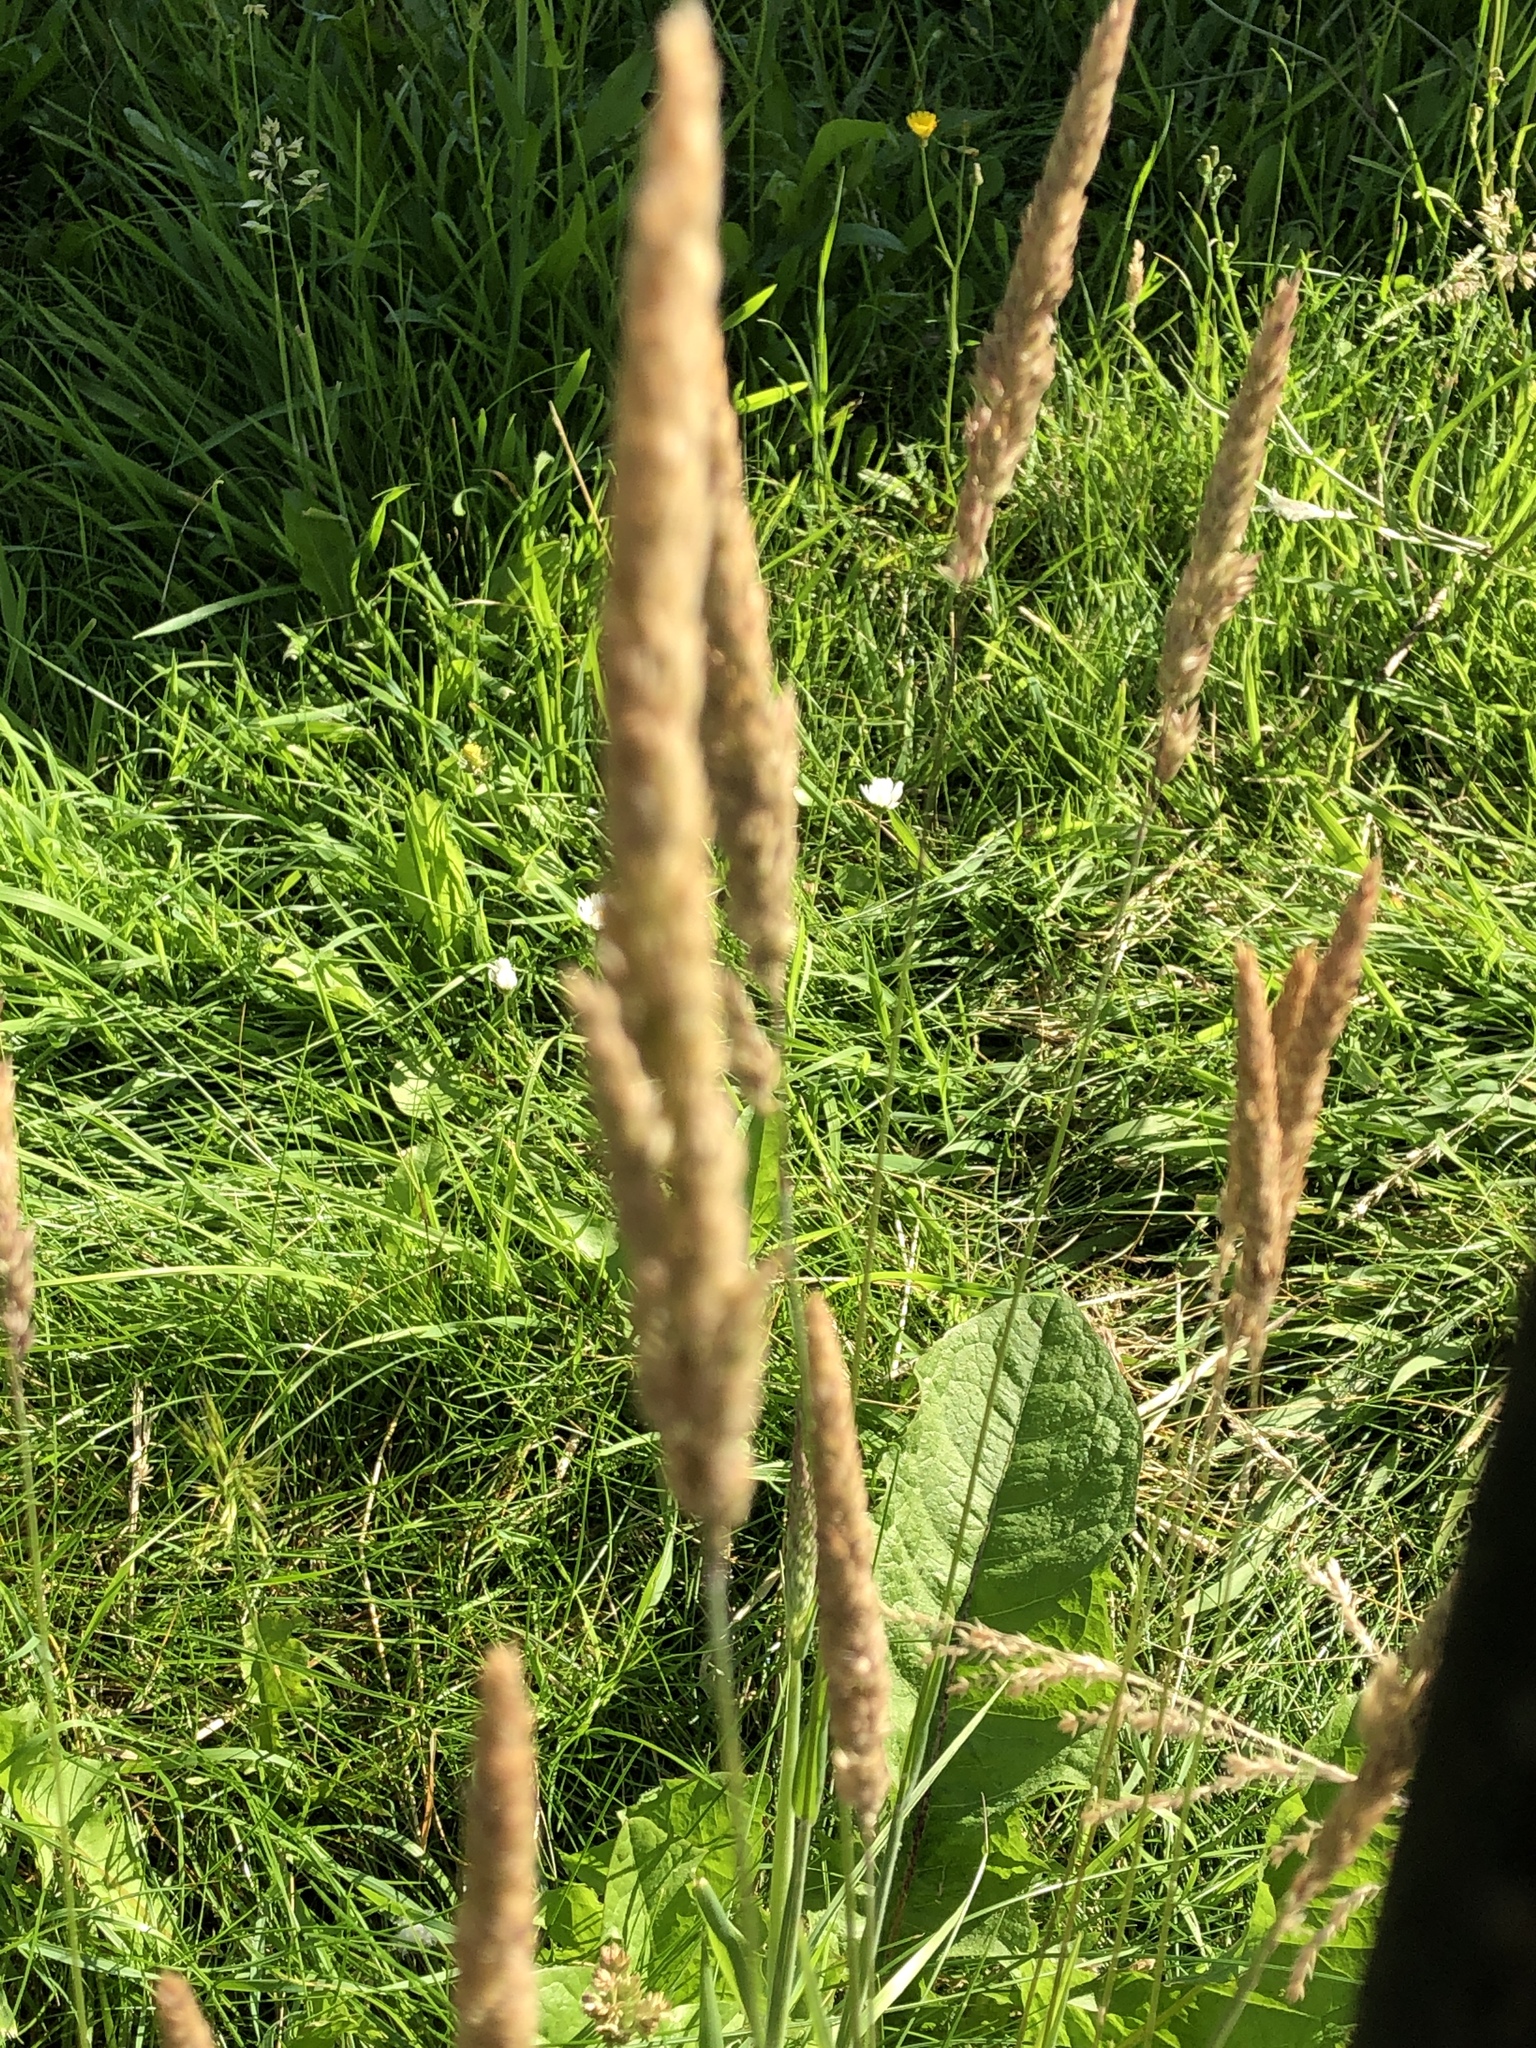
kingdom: Plantae
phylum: Tracheophyta
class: Liliopsida
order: Poales
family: Poaceae
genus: Holcus
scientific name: Holcus lanatus
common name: Yorkshire-fog
